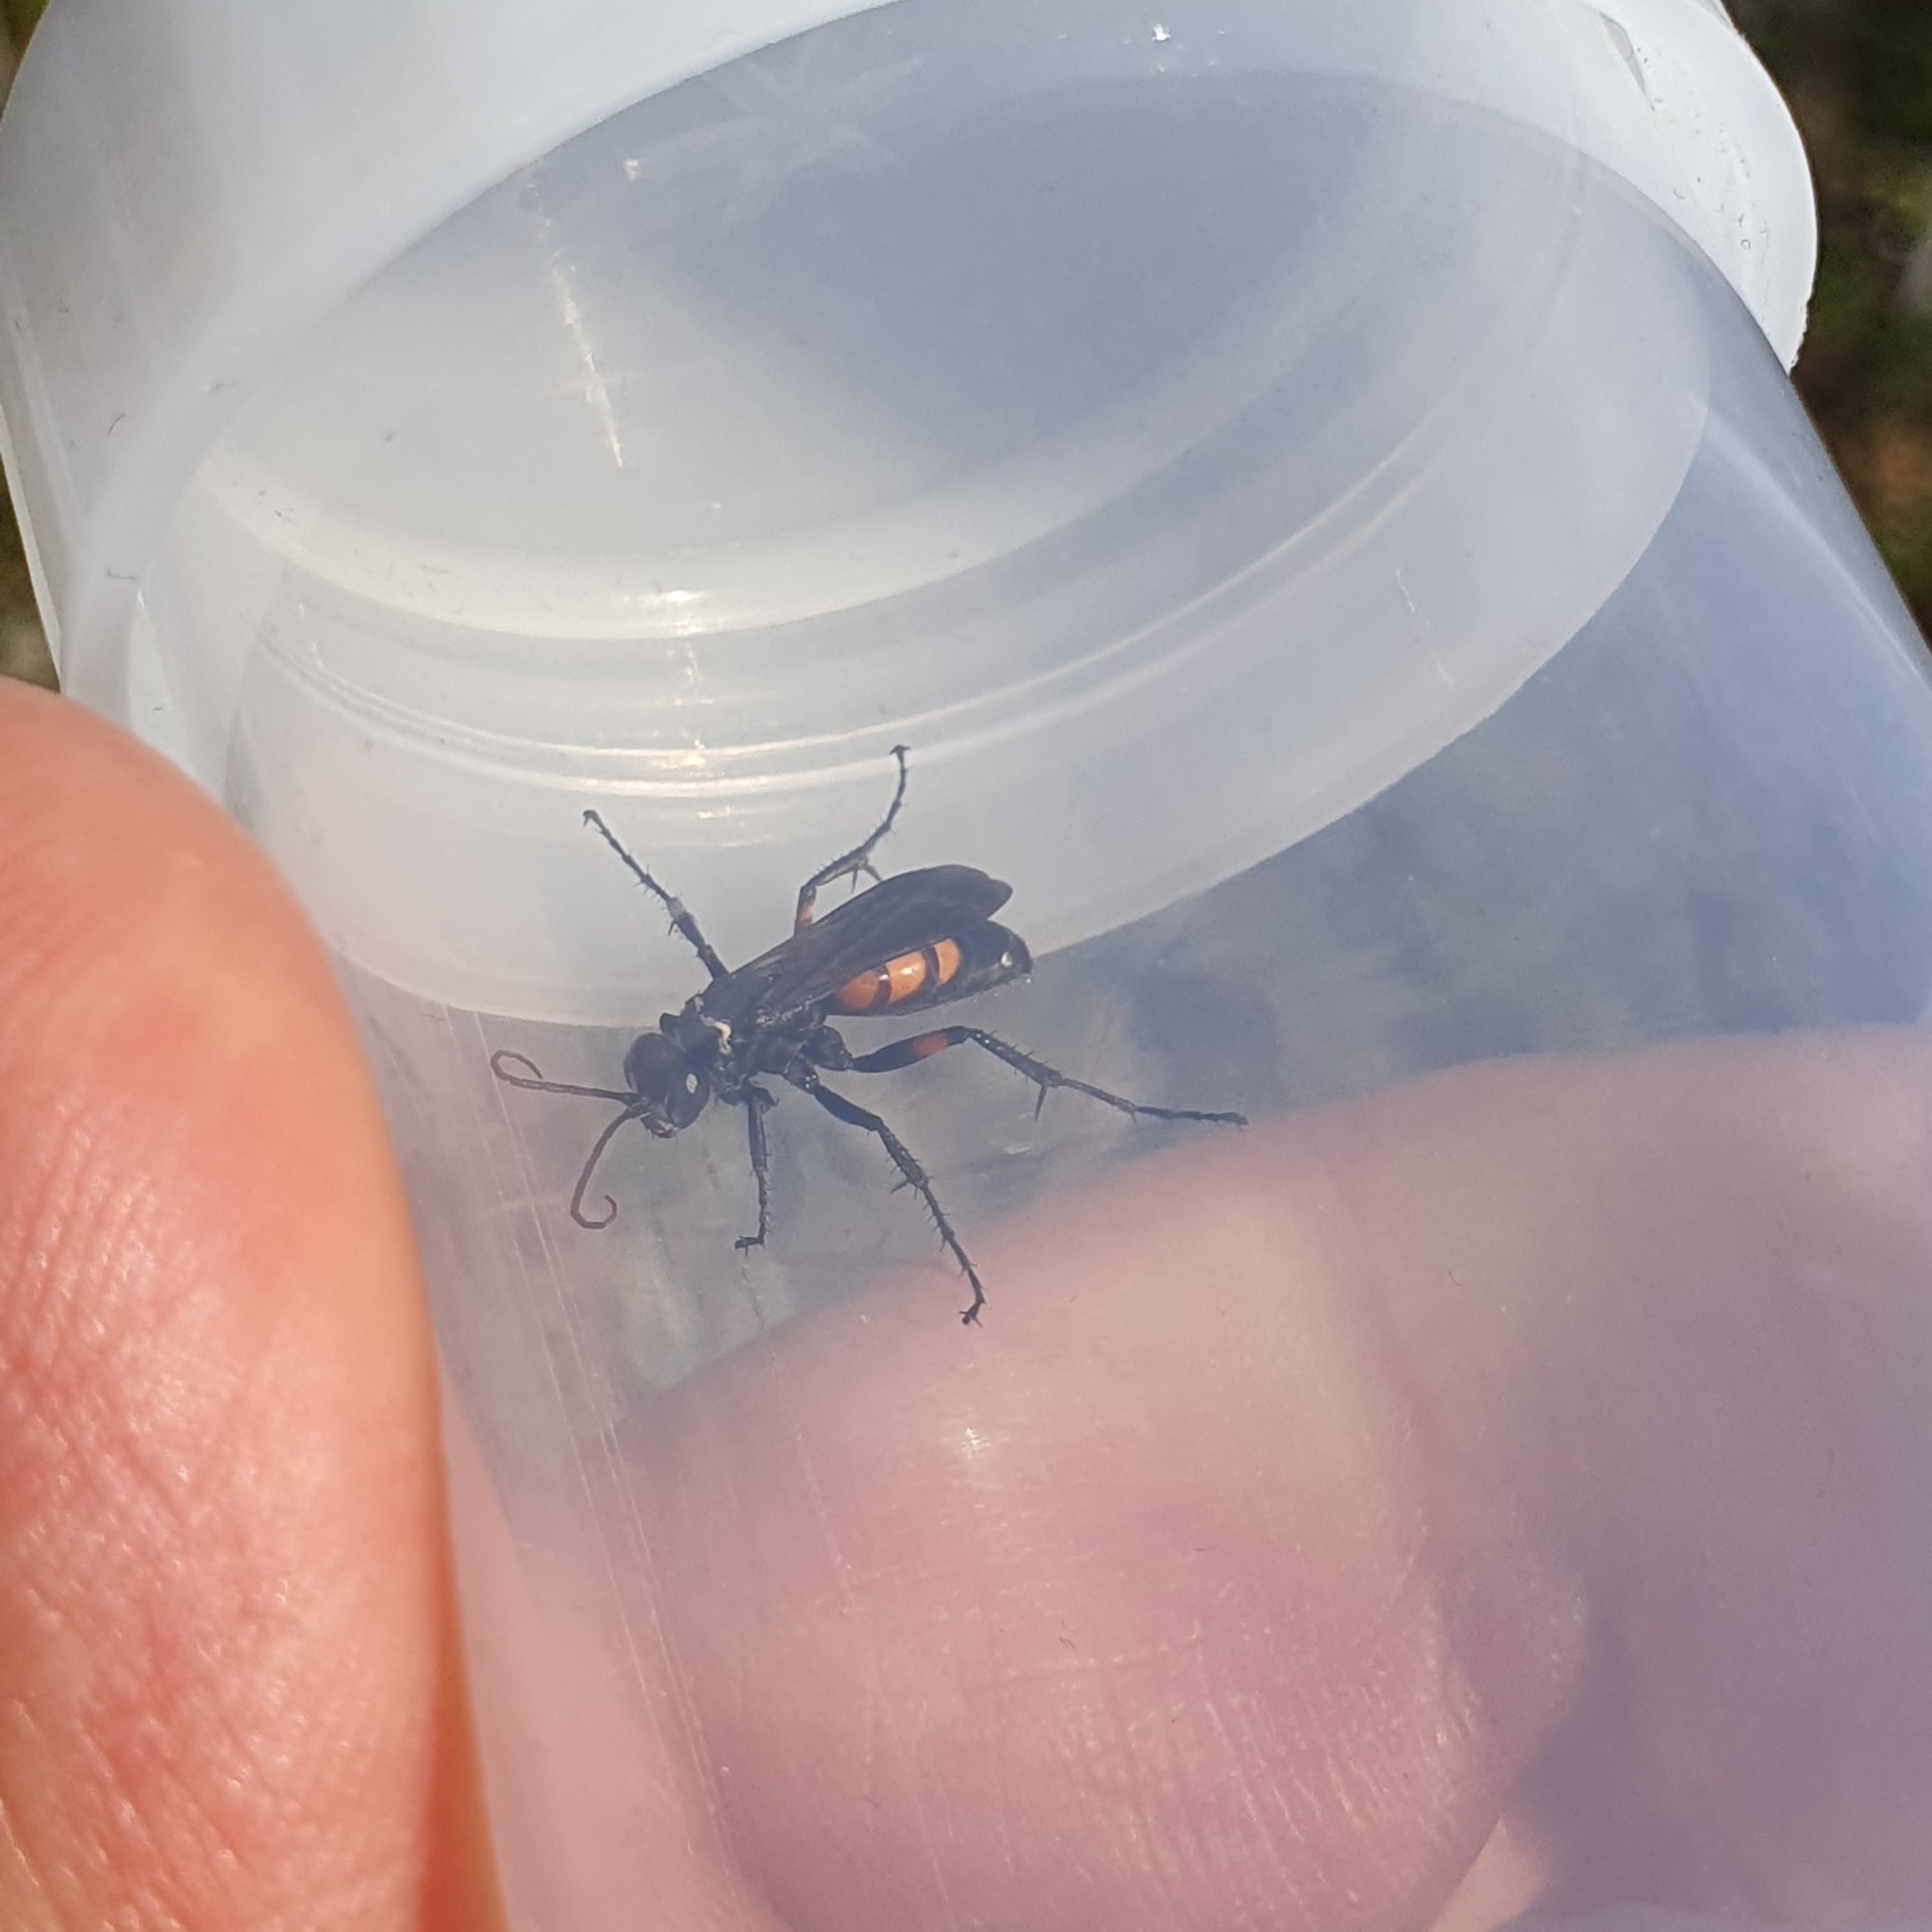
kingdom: Animalia
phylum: Arthropoda
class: Insecta
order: Hymenoptera
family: Pompilidae
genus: Anoplius
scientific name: Anoplius viaticus
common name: Black banded spider wasp
